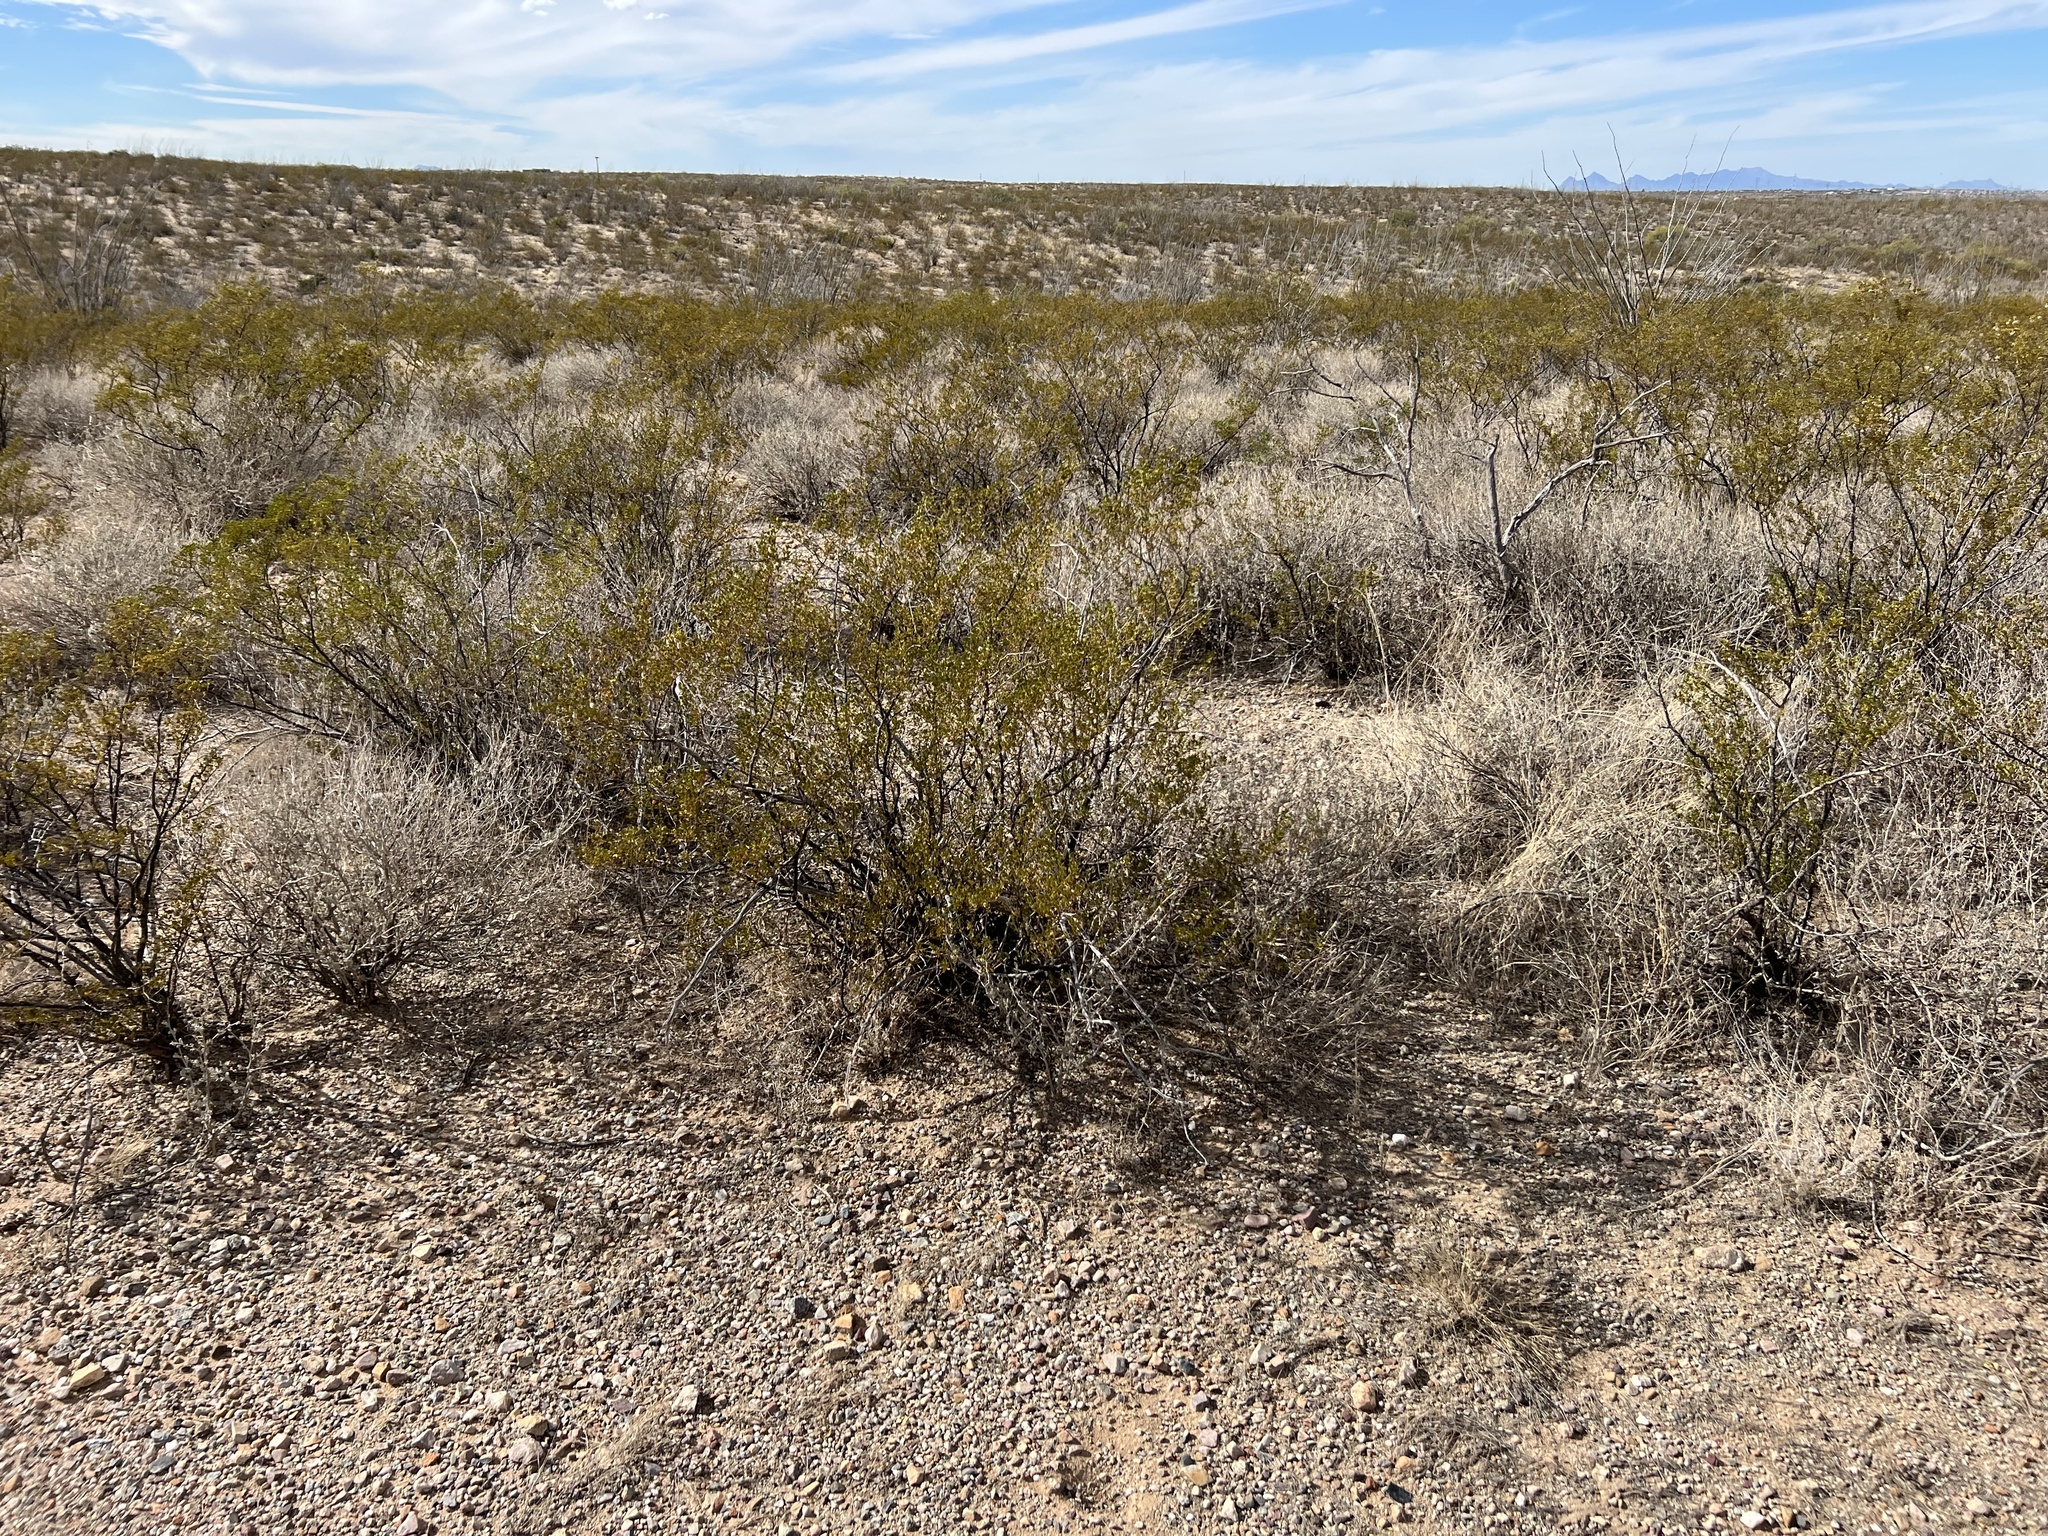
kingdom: Plantae
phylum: Tracheophyta
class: Magnoliopsida
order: Zygophyllales
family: Zygophyllaceae
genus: Larrea
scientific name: Larrea tridentata
